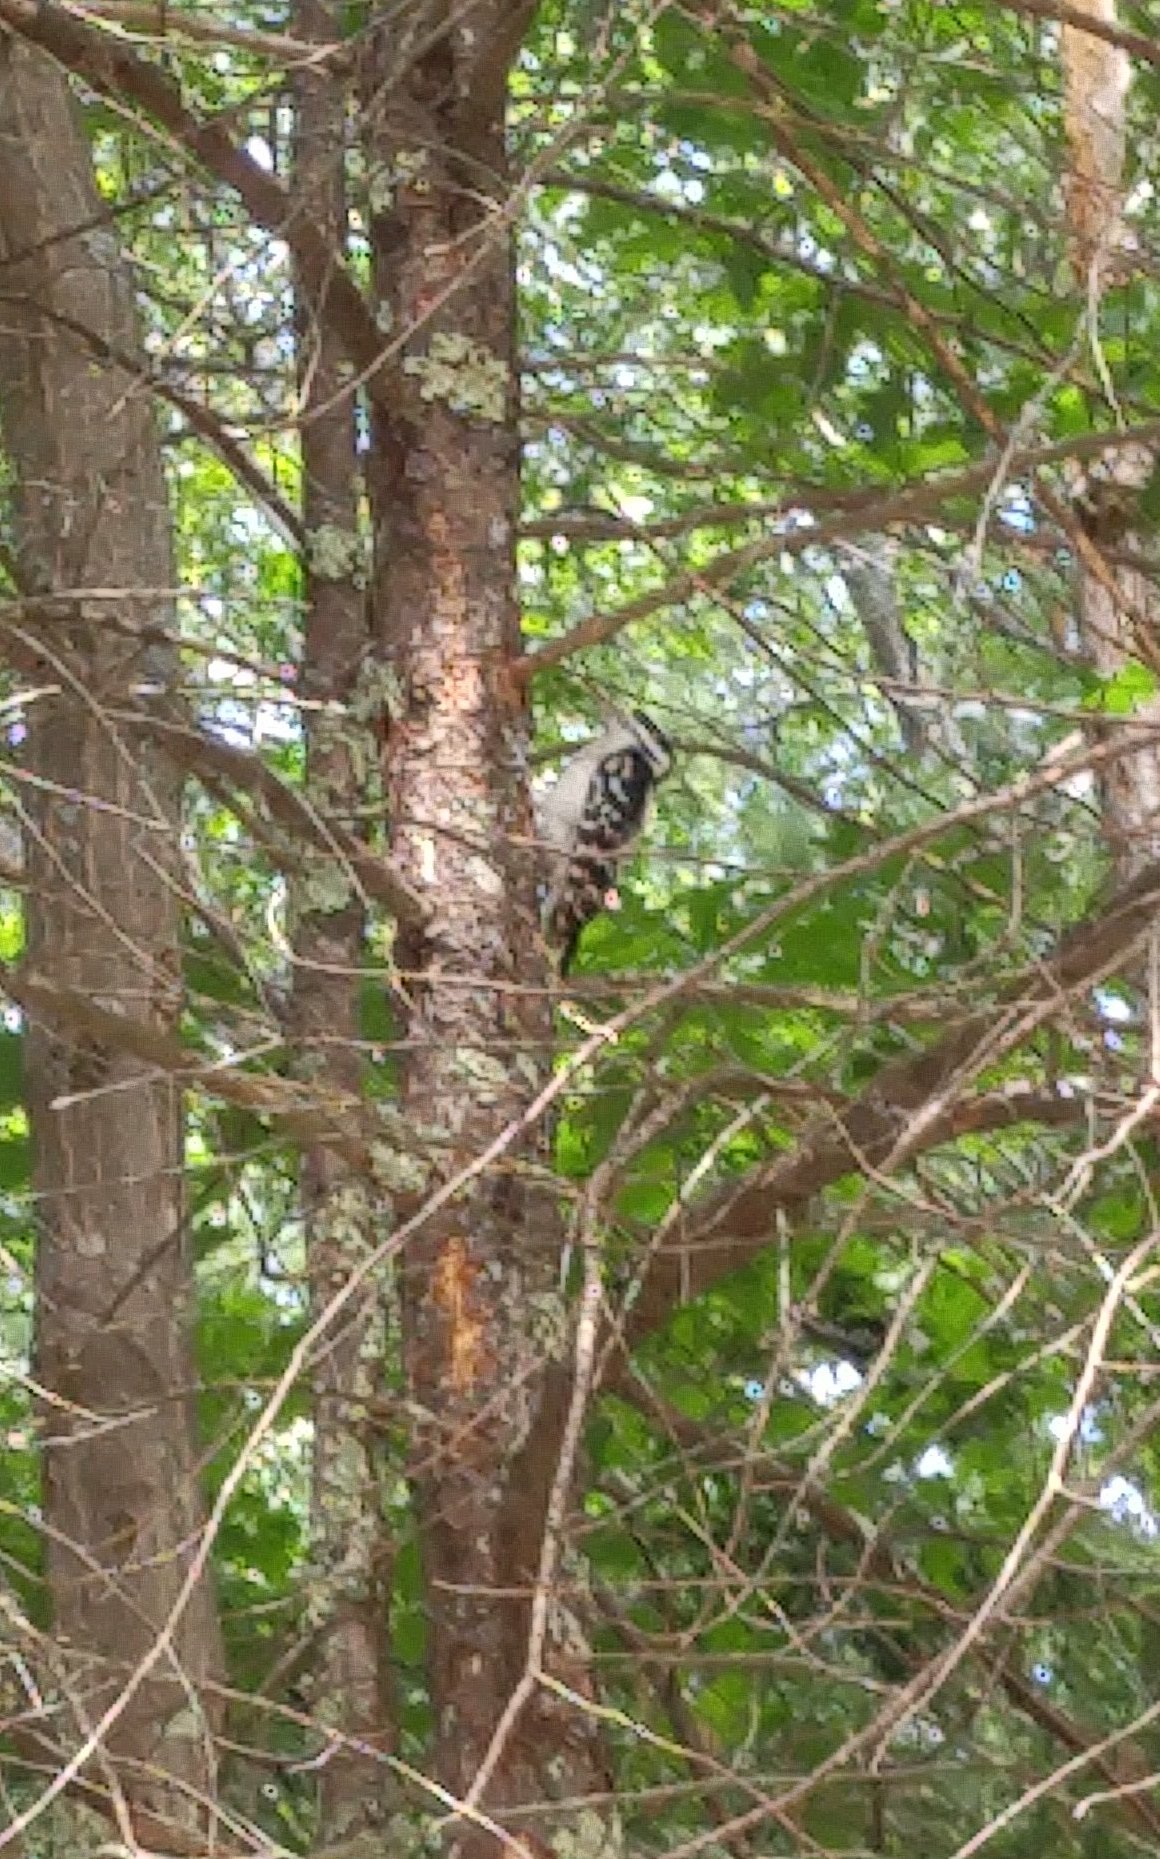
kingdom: Animalia
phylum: Chordata
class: Aves
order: Piciformes
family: Picidae
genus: Dryobates
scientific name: Dryobates pubescens
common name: Downy woodpecker
